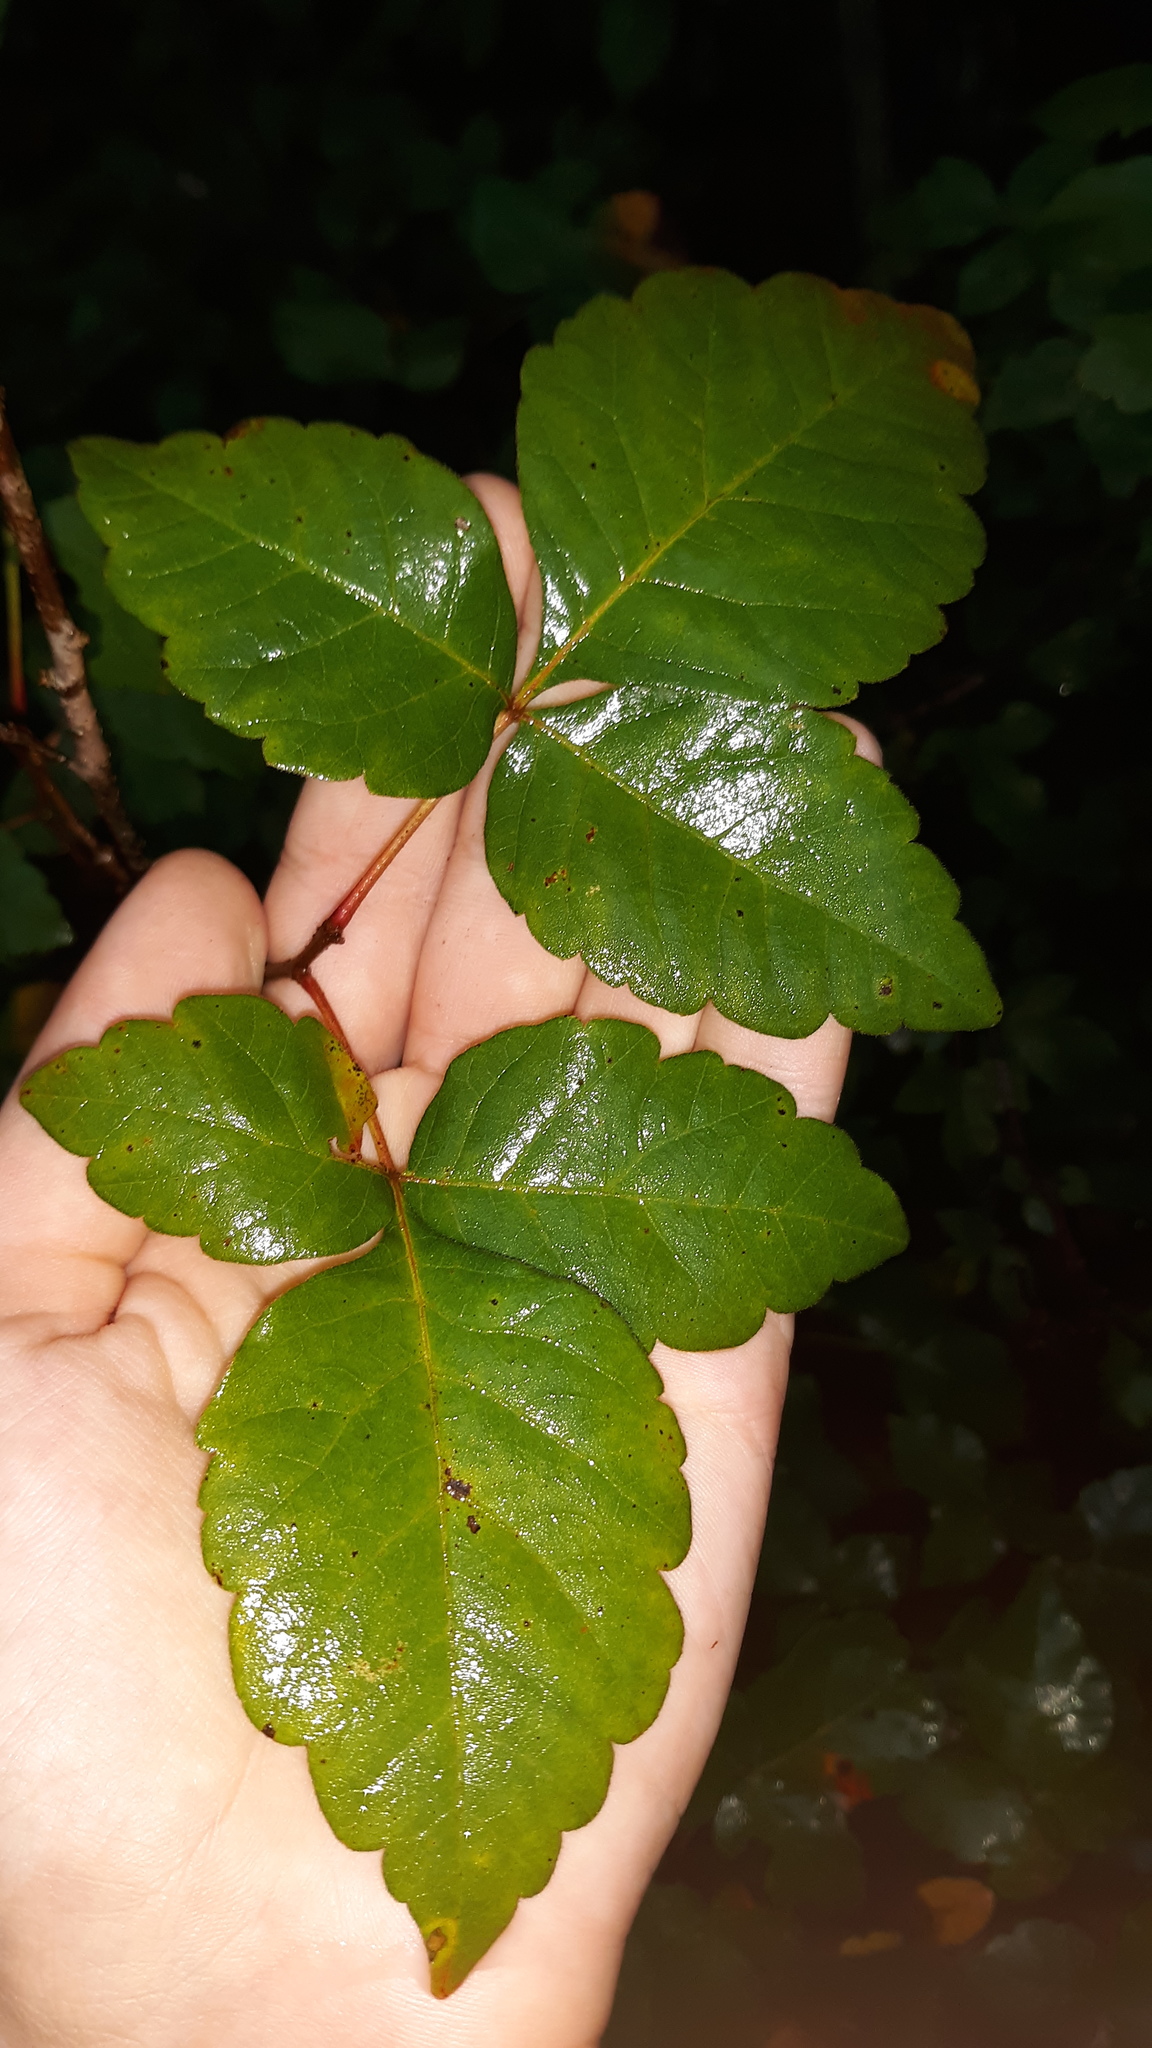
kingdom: Plantae
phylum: Tracheophyta
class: Magnoliopsida
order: Sapindales
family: Anacardiaceae
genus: Rhus
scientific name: Rhus aromatica
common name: Aromatic sumac
